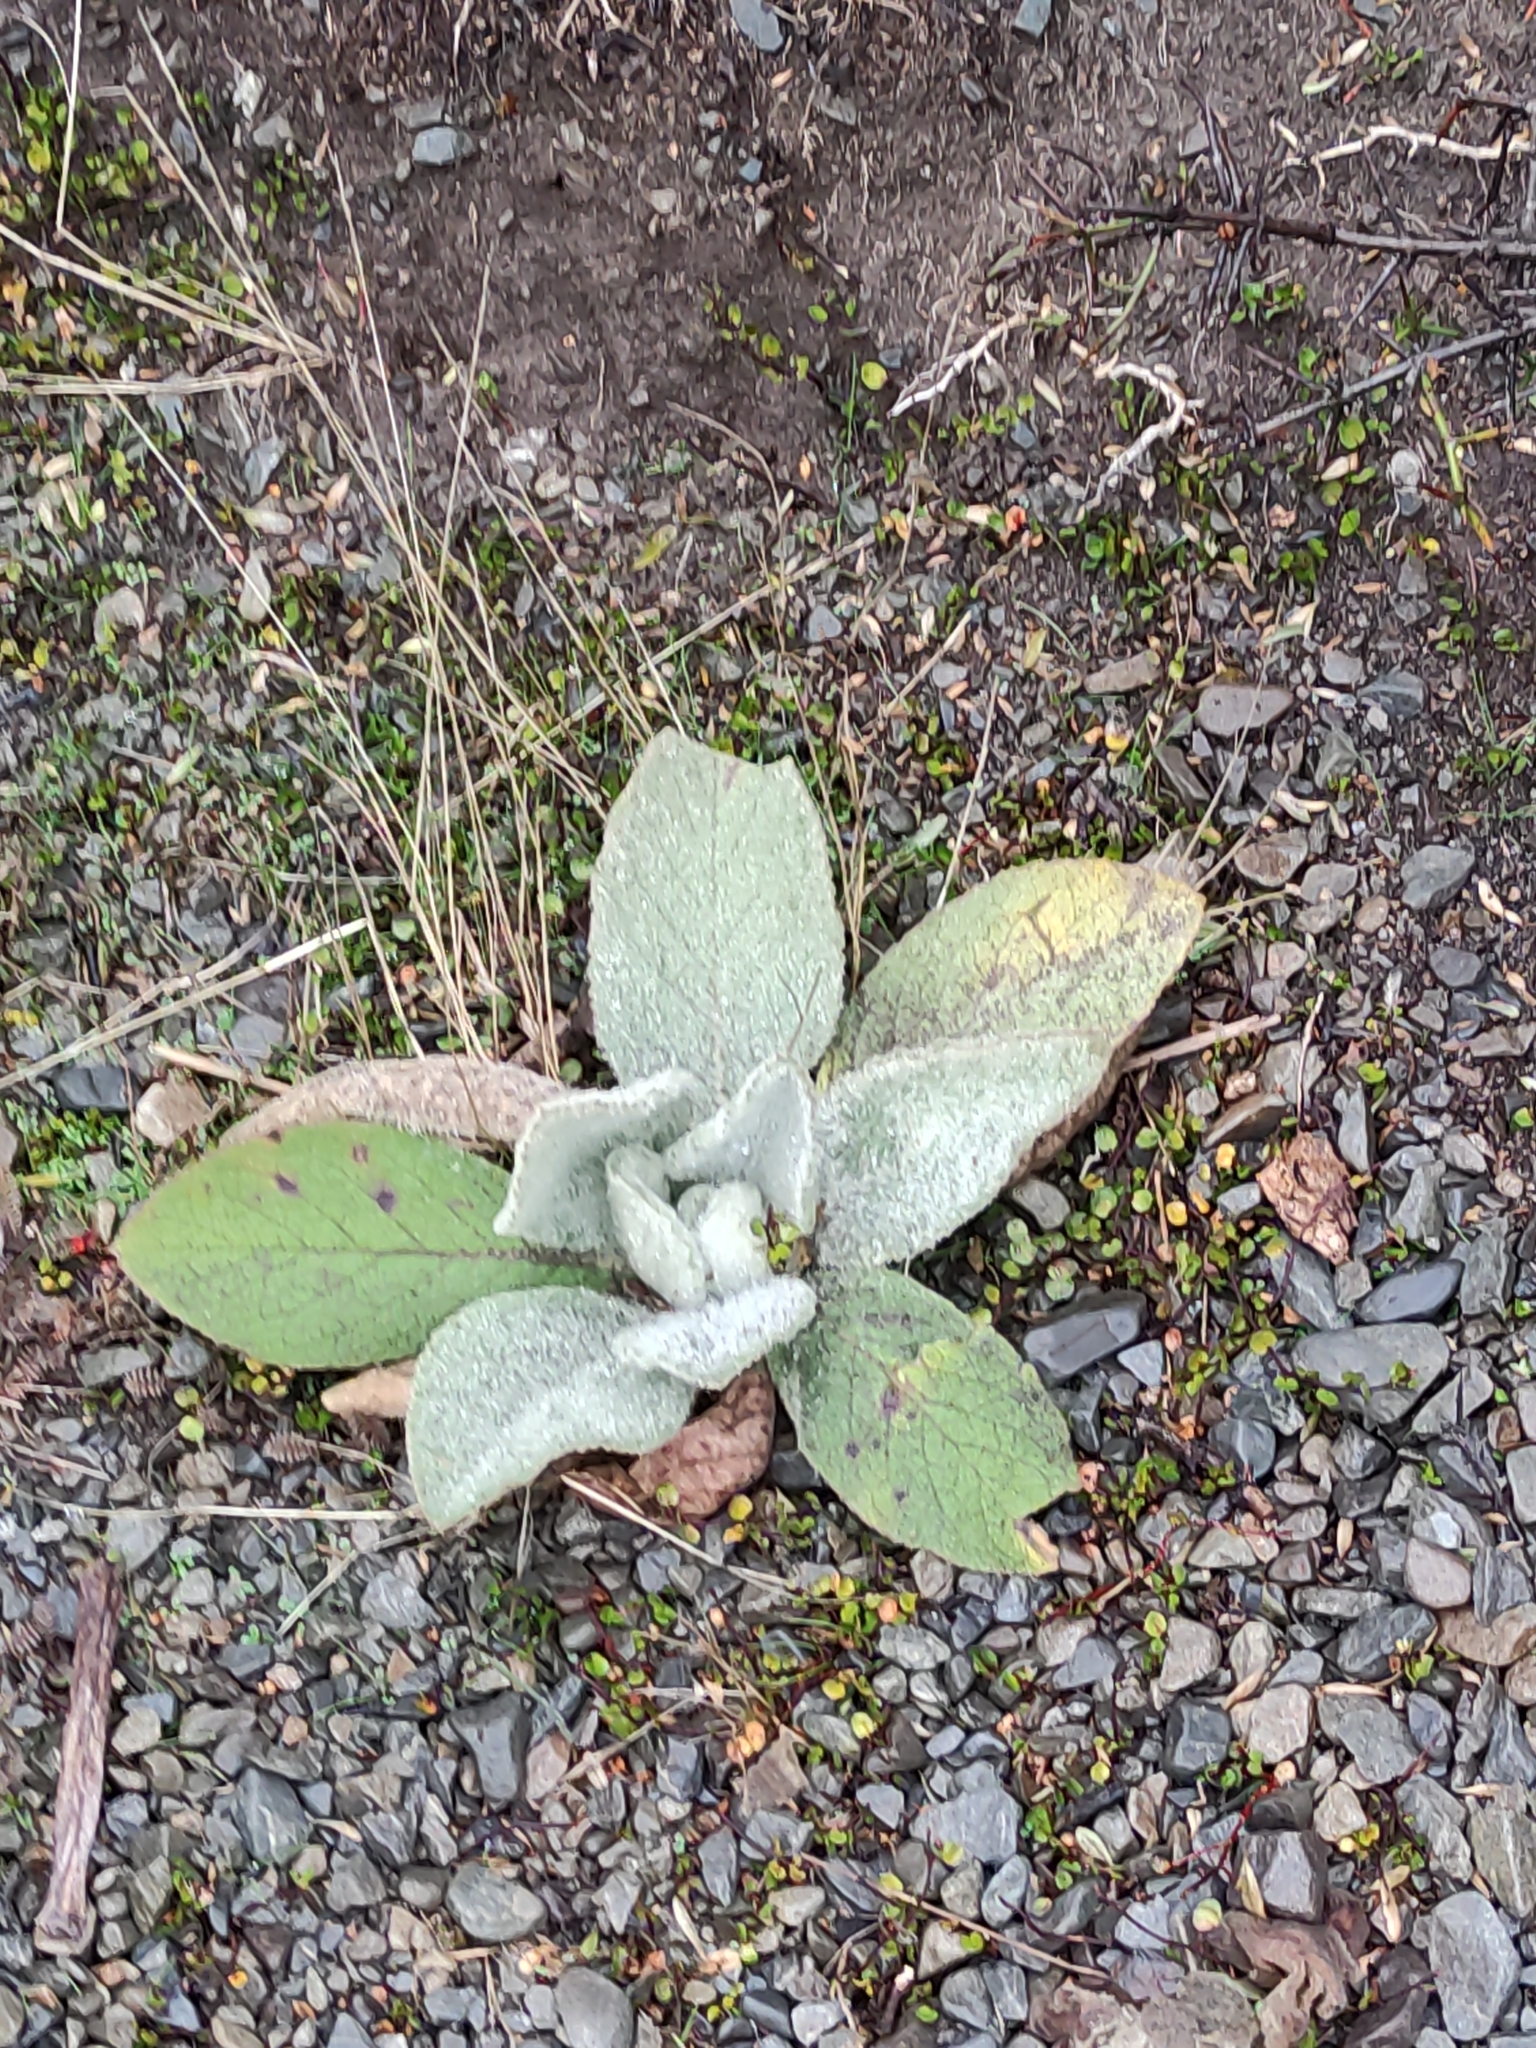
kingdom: Plantae
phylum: Tracheophyta
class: Magnoliopsida
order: Lamiales
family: Scrophulariaceae
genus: Verbascum
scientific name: Verbascum thapsus
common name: Common mullein
